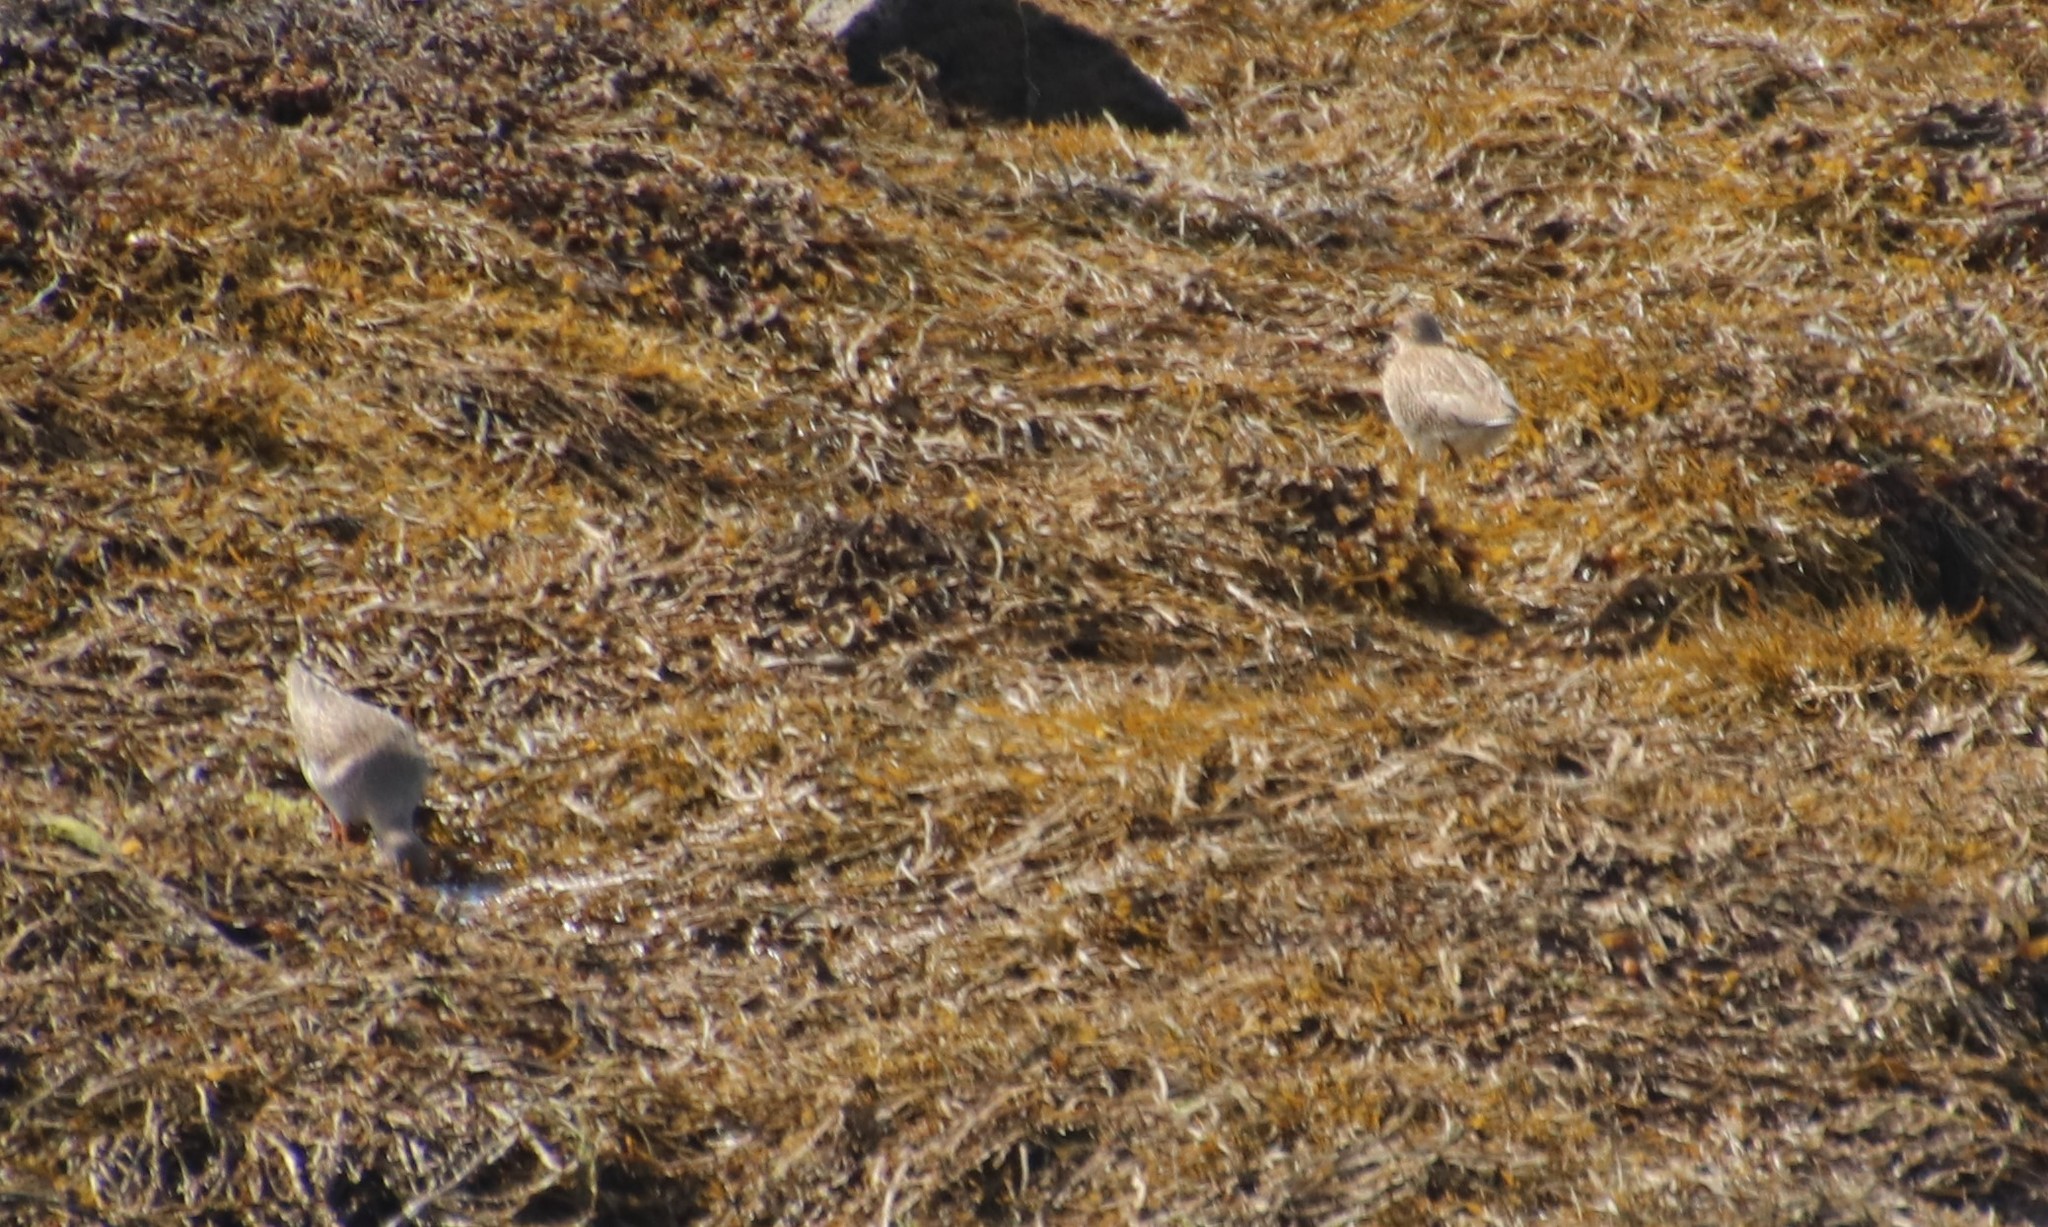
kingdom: Animalia
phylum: Chordata
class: Aves
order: Charadriiformes
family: Scolopacidae
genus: Tringa
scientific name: Tringa totanus
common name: Common redshank
